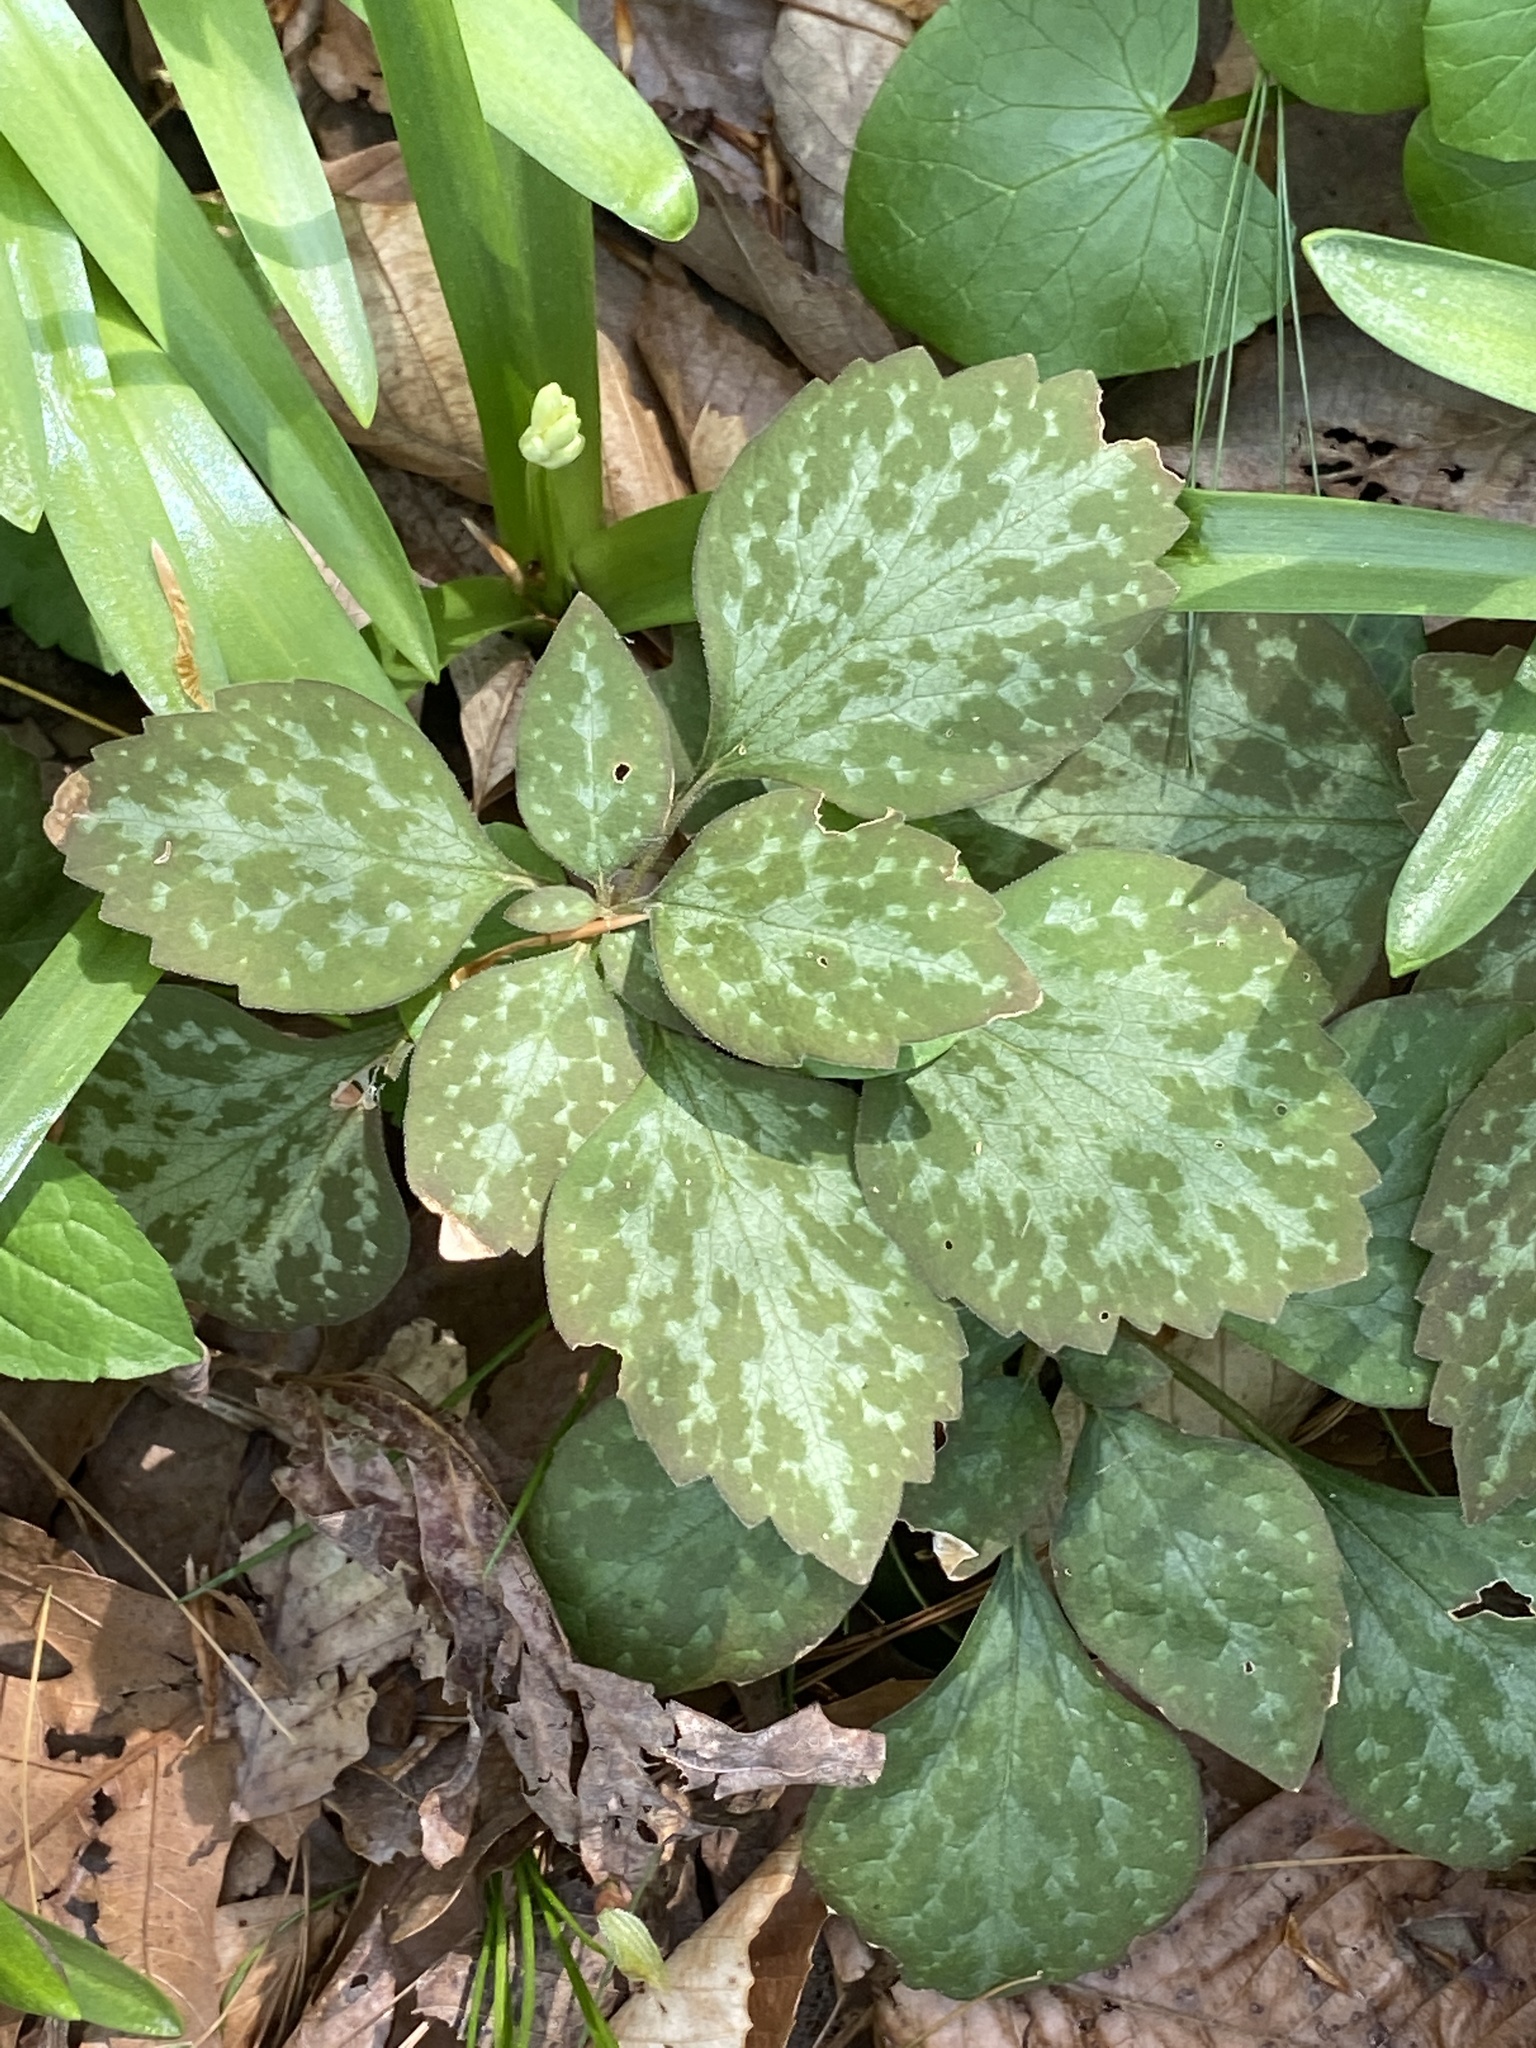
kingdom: Plantae
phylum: Tracheophyta
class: Magnoliopsida
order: Buxales
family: Buxaceae
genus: Pachysandra
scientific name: Pachysandra procumbens
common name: Mountain-spurge
